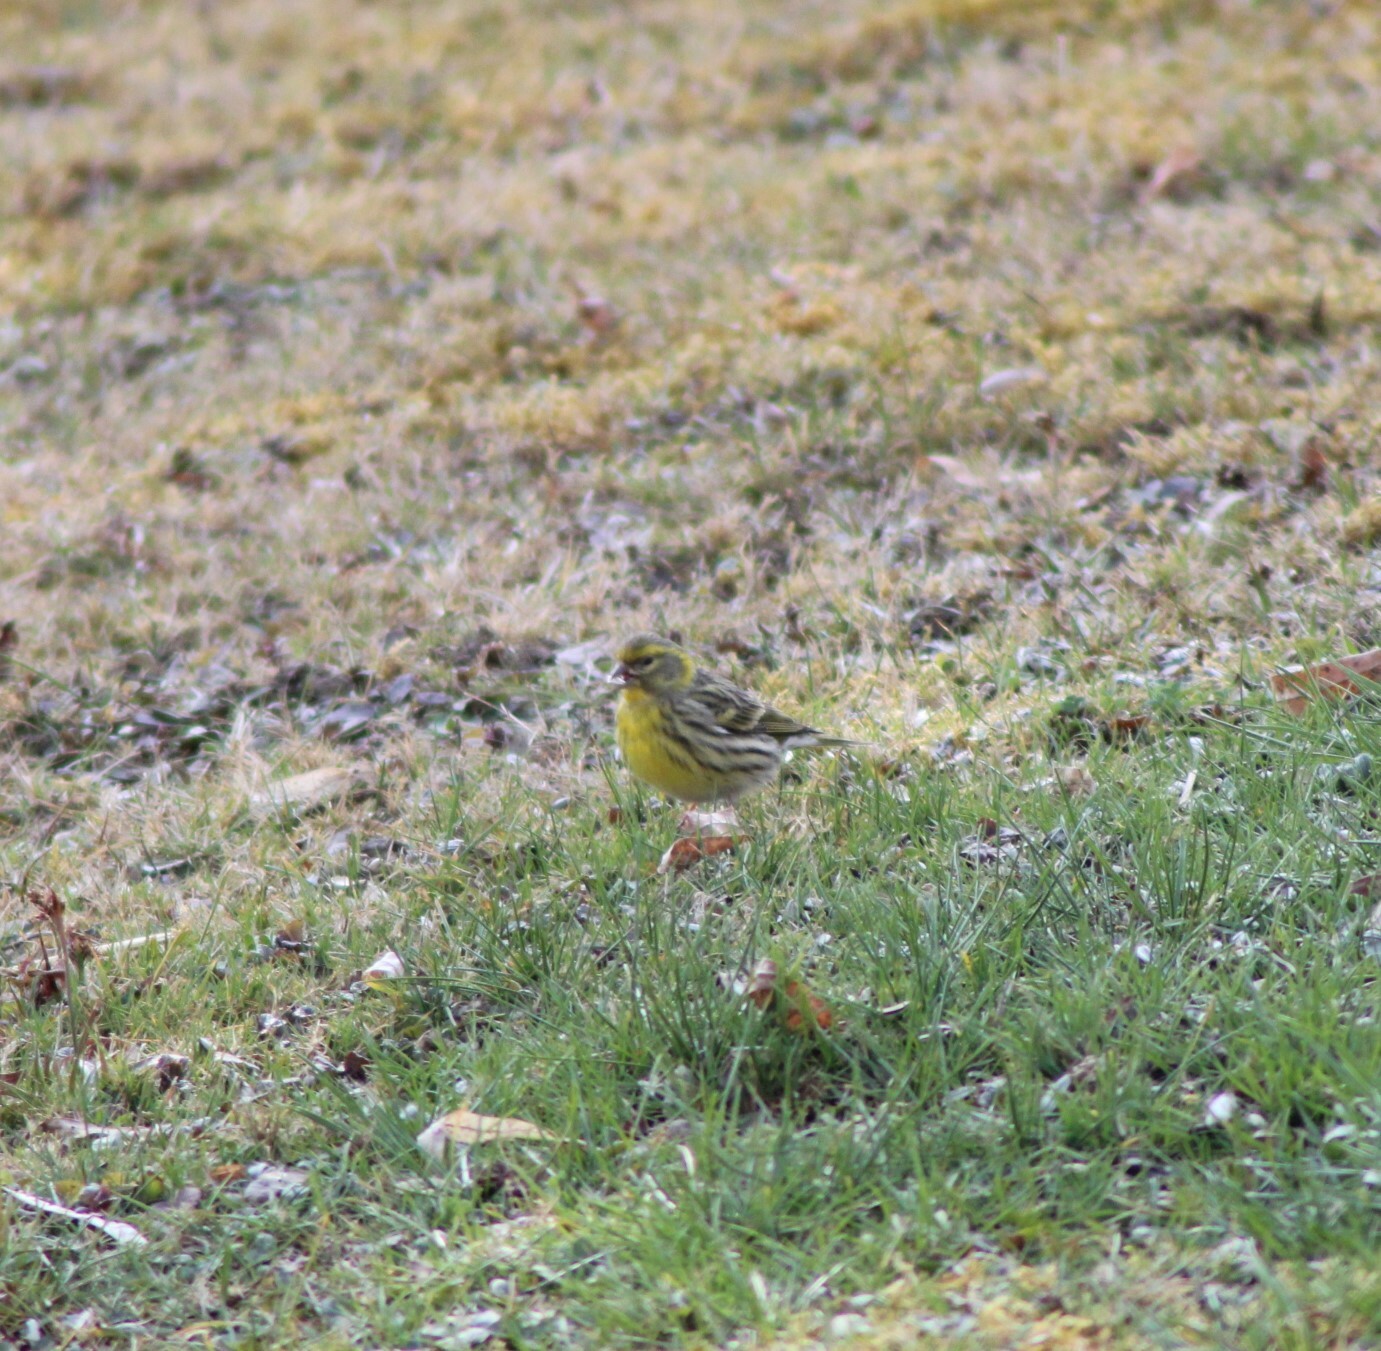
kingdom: Animalia
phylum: Chordata
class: Aves
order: Passeriformes
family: Fringillidae
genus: Serinus
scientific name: Serinus serinus
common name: European serin
